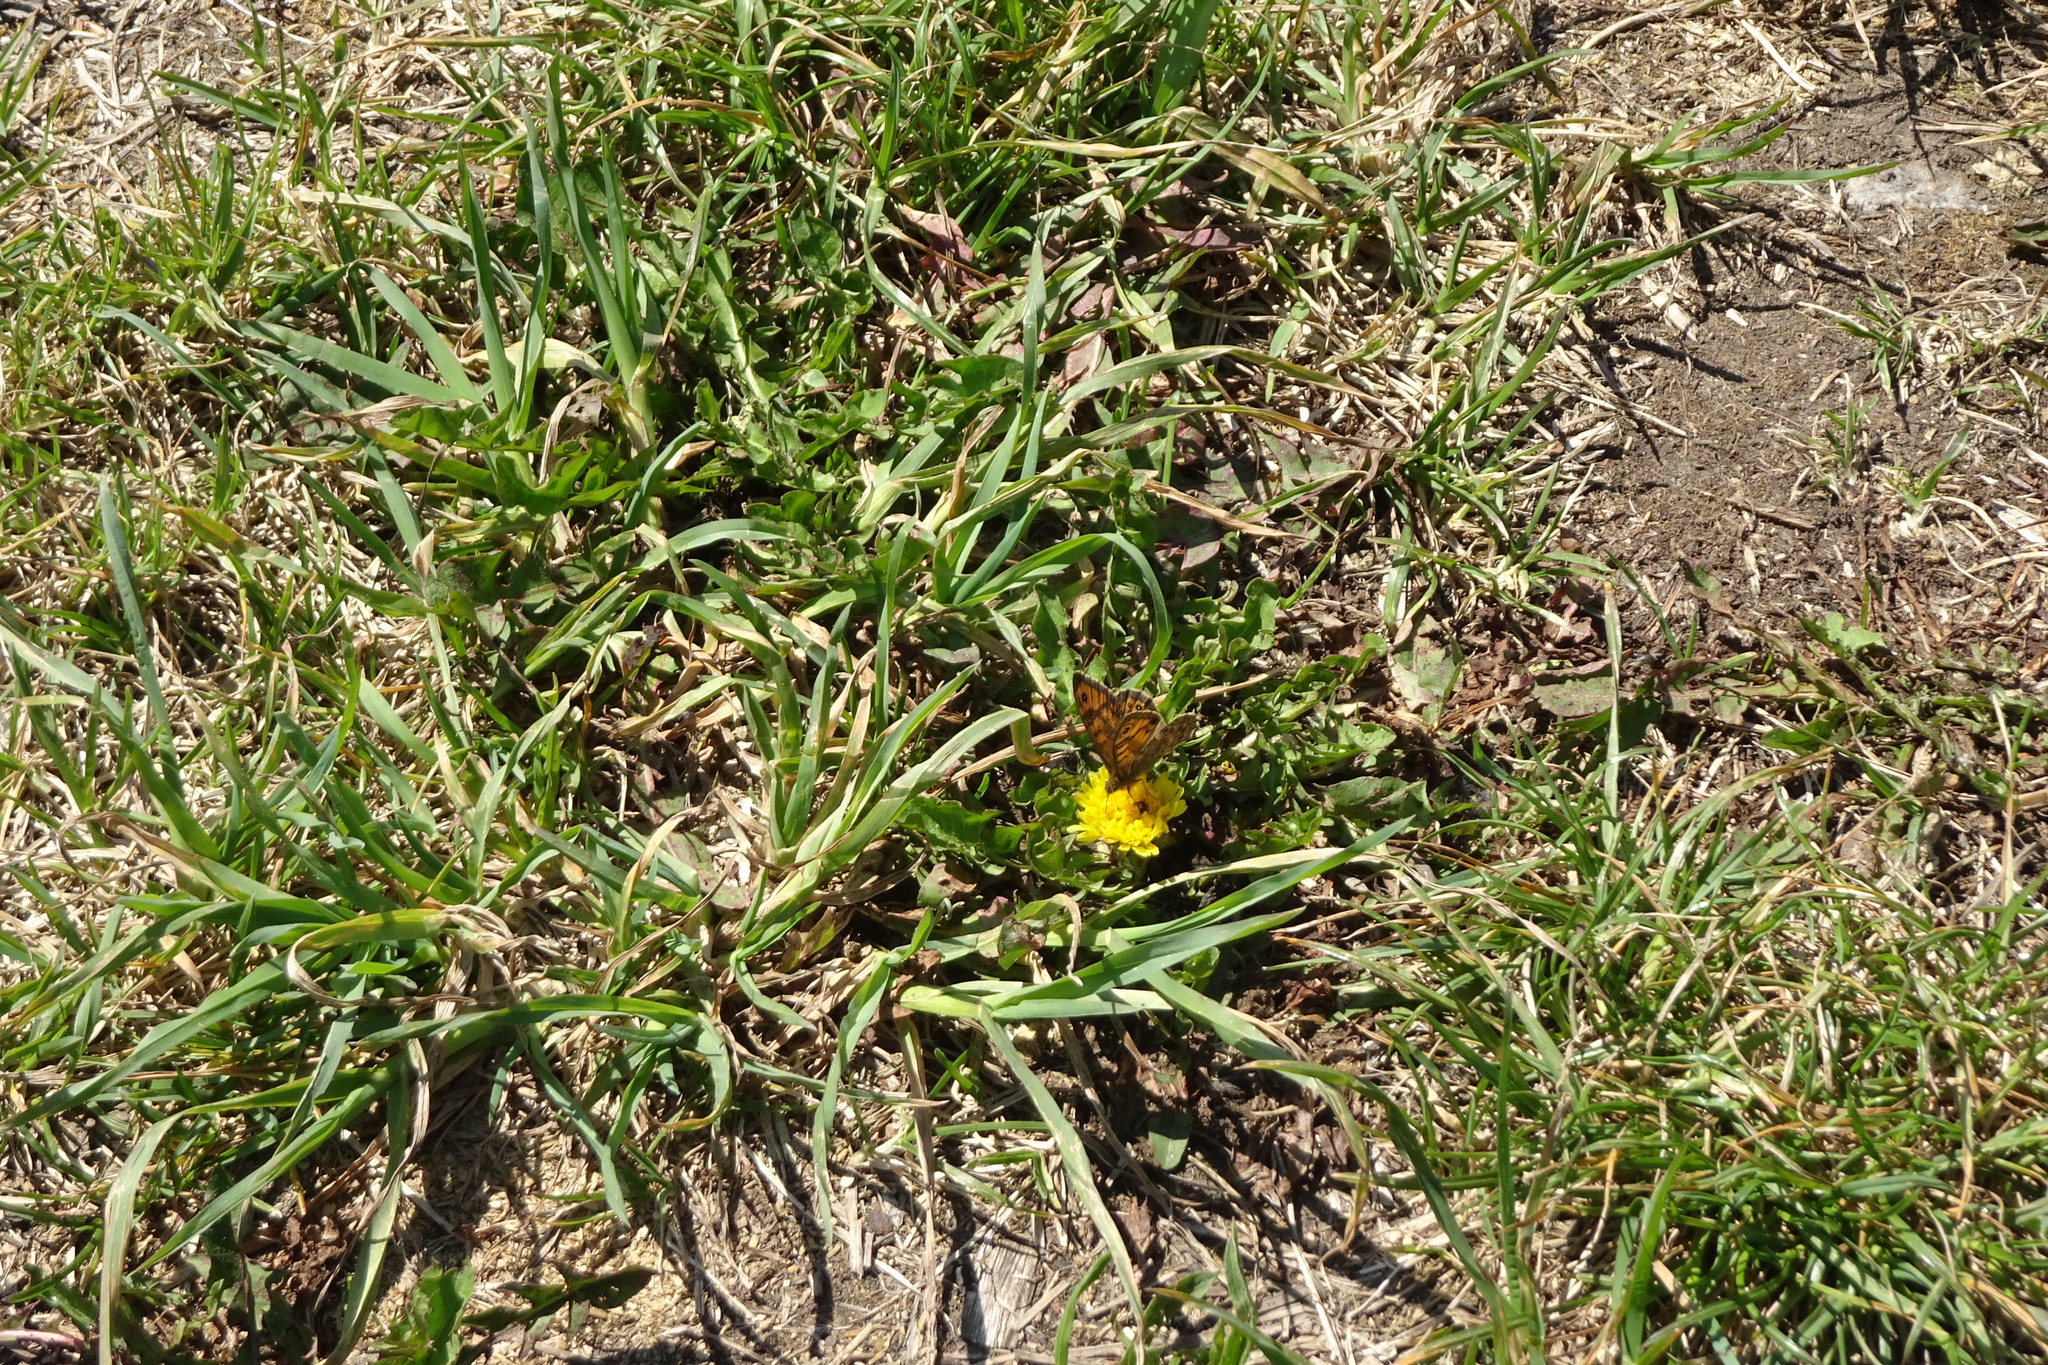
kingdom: Animalia
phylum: Arthropoda
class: Insecta
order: Lepidoptera
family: Nymphalidae
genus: Pararge
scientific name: Pararge Lasiommata megera
